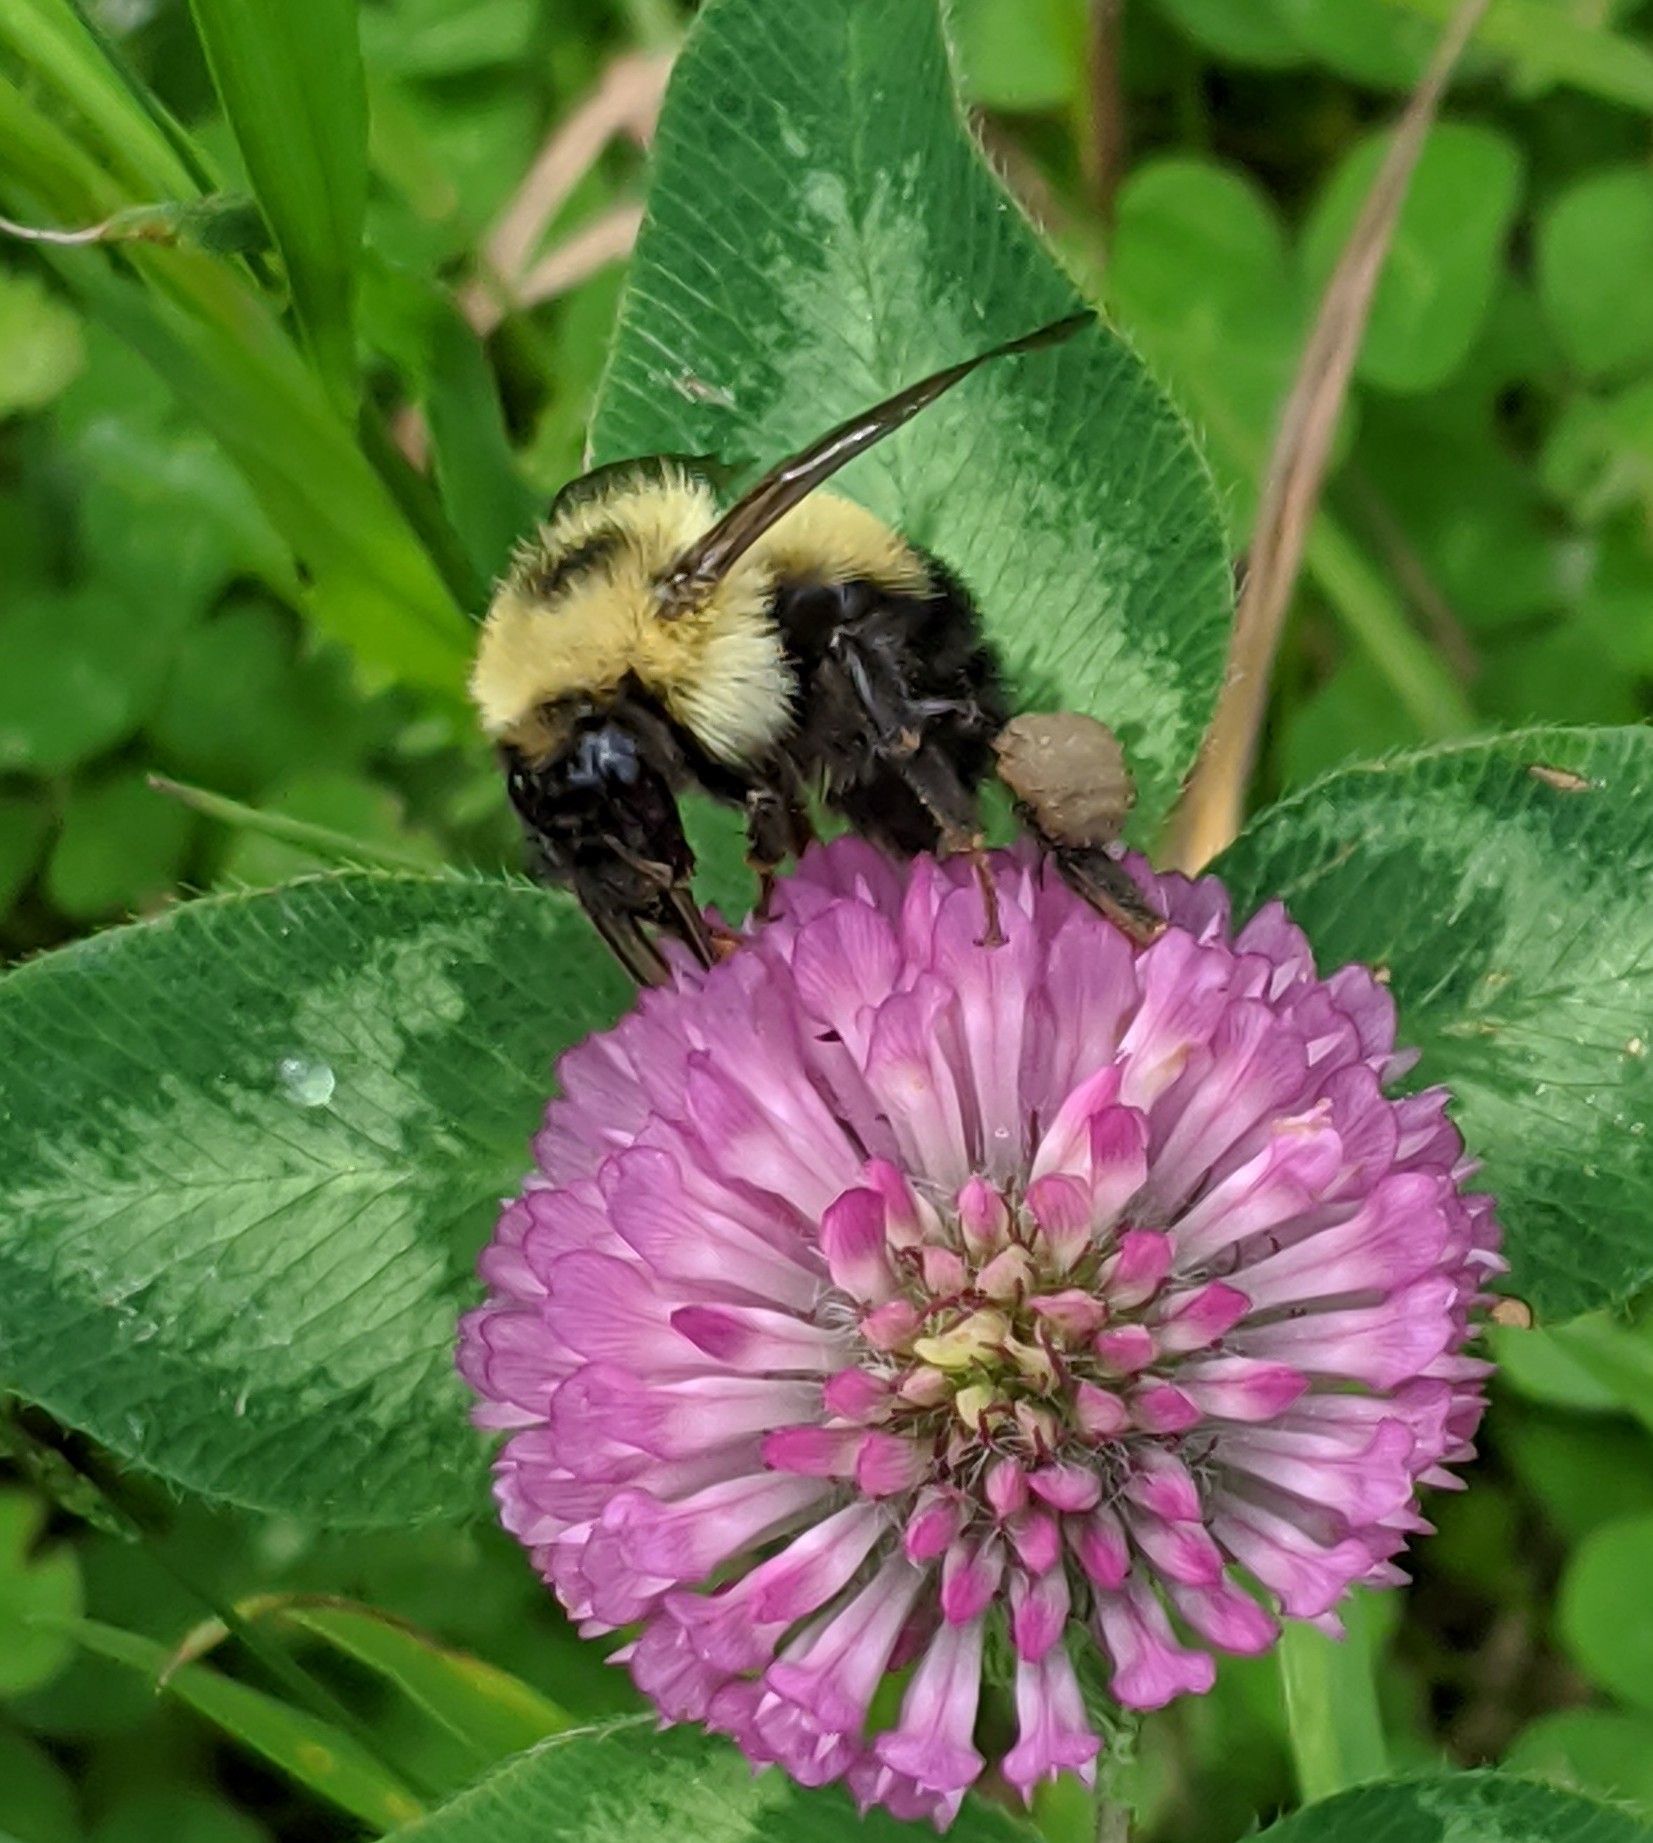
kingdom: Animalia
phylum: Arthropoda
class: Insecta
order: Hymenoptera
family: Apidae
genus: Bombus
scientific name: Bombus vagans
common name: Half-black bumble bee
